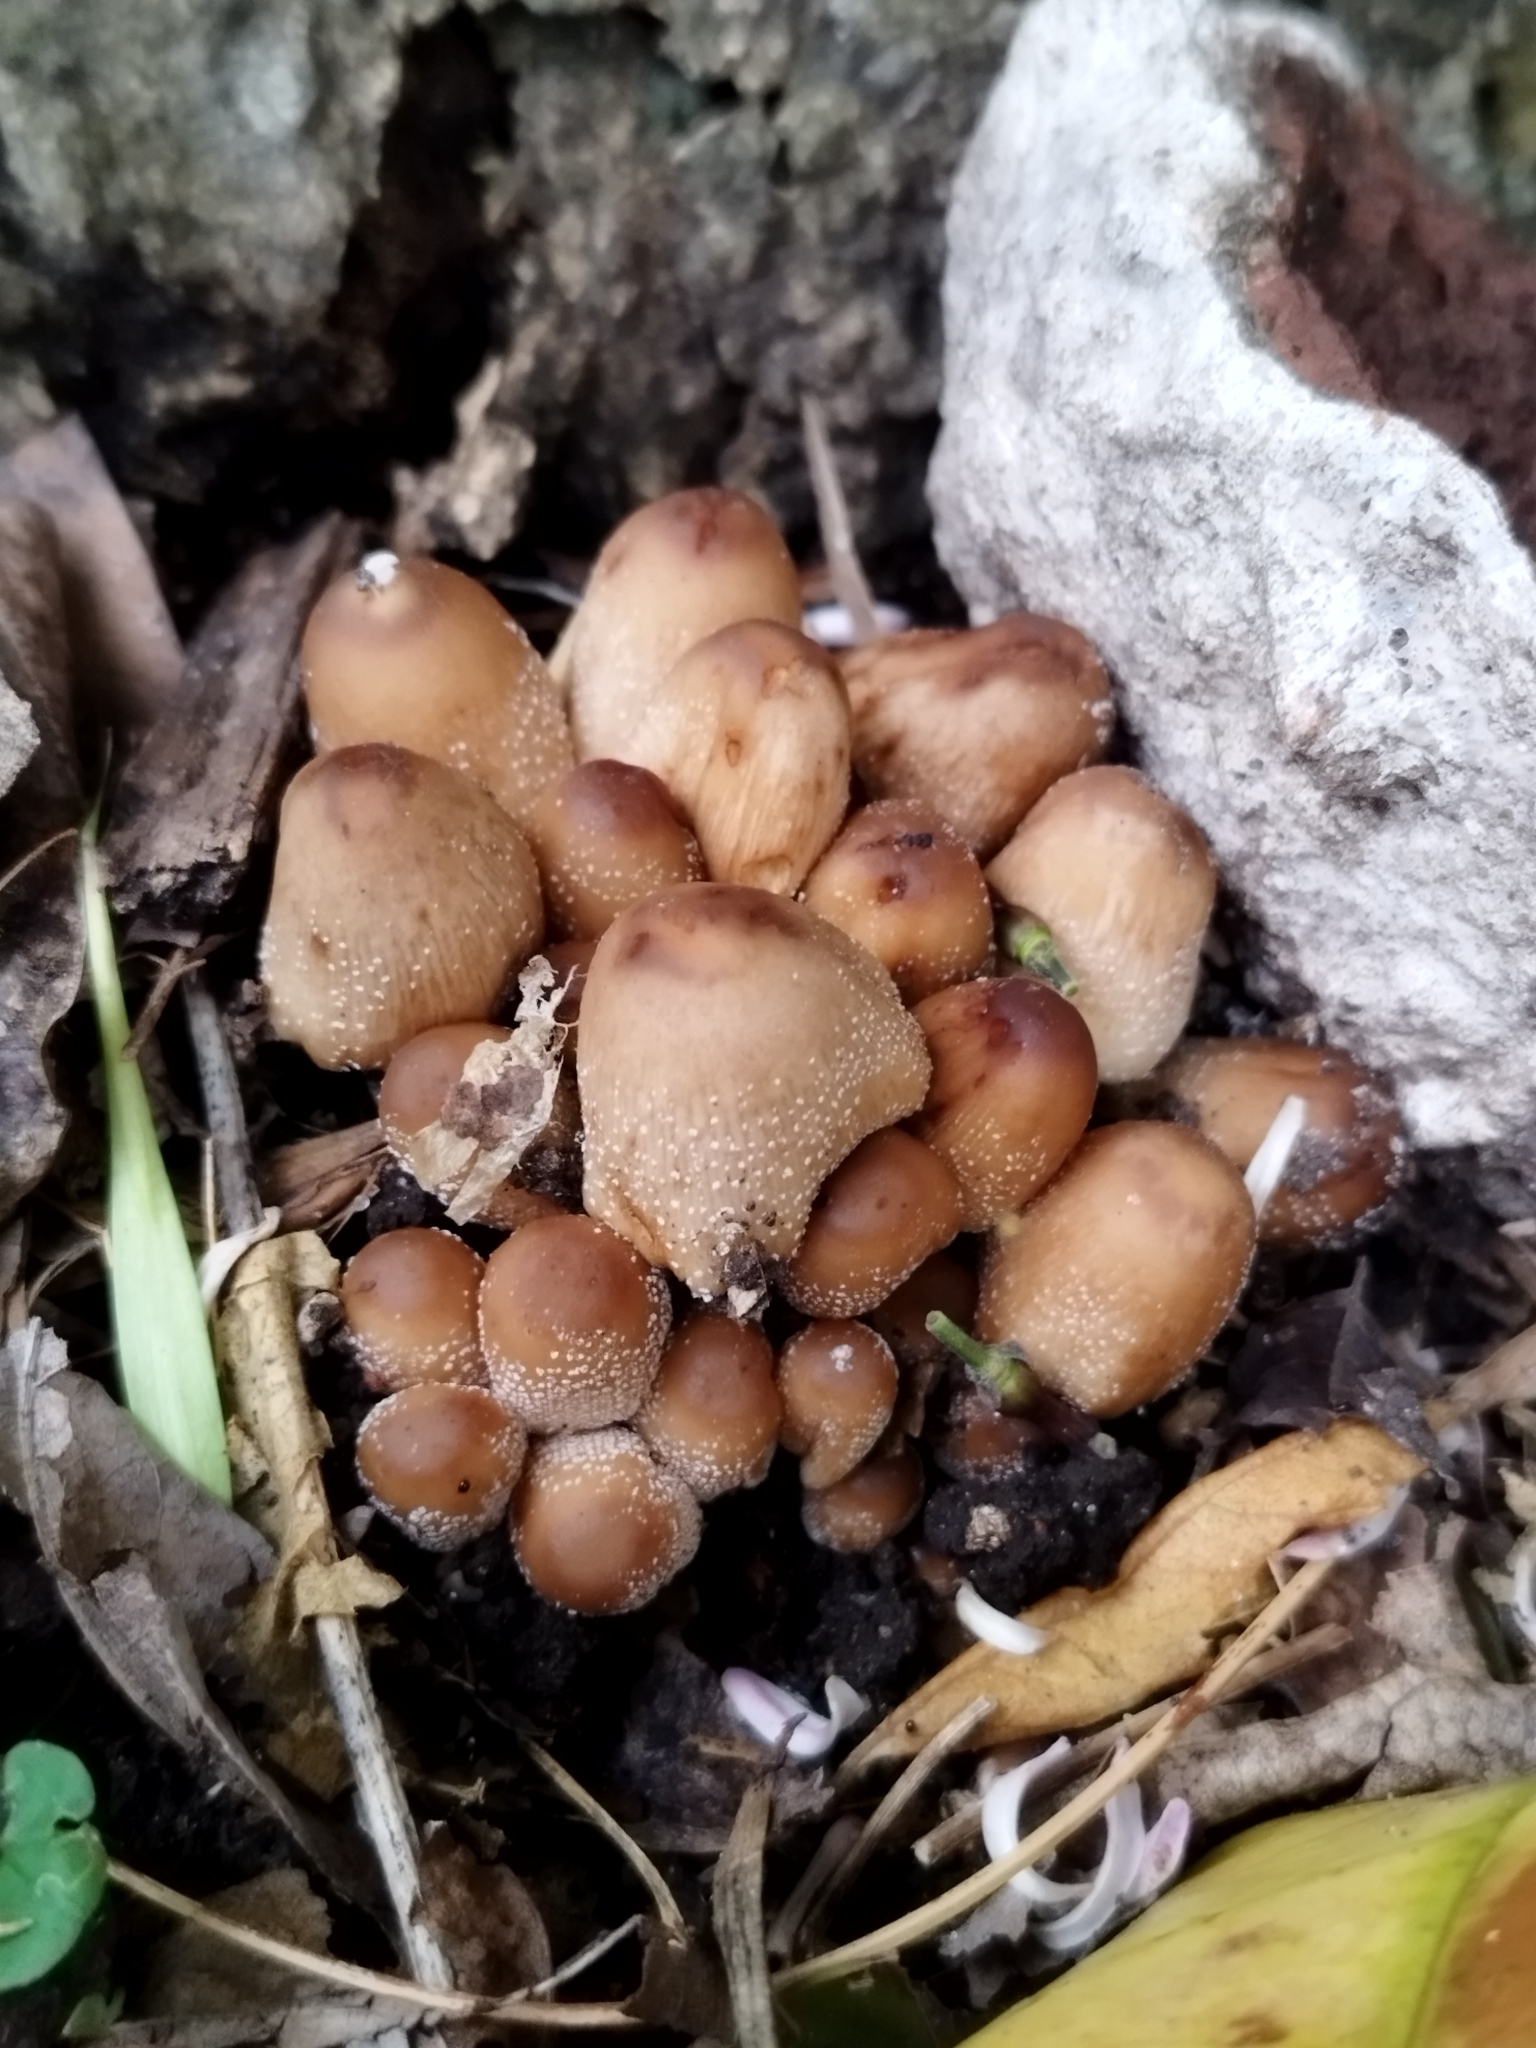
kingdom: Fungi
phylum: Basidiomycota
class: Agaricomycetes
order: Agaricales
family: Psathyrellaceae
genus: Coprinellus
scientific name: Coprinellus micaceus
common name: Glistening ink-cap
